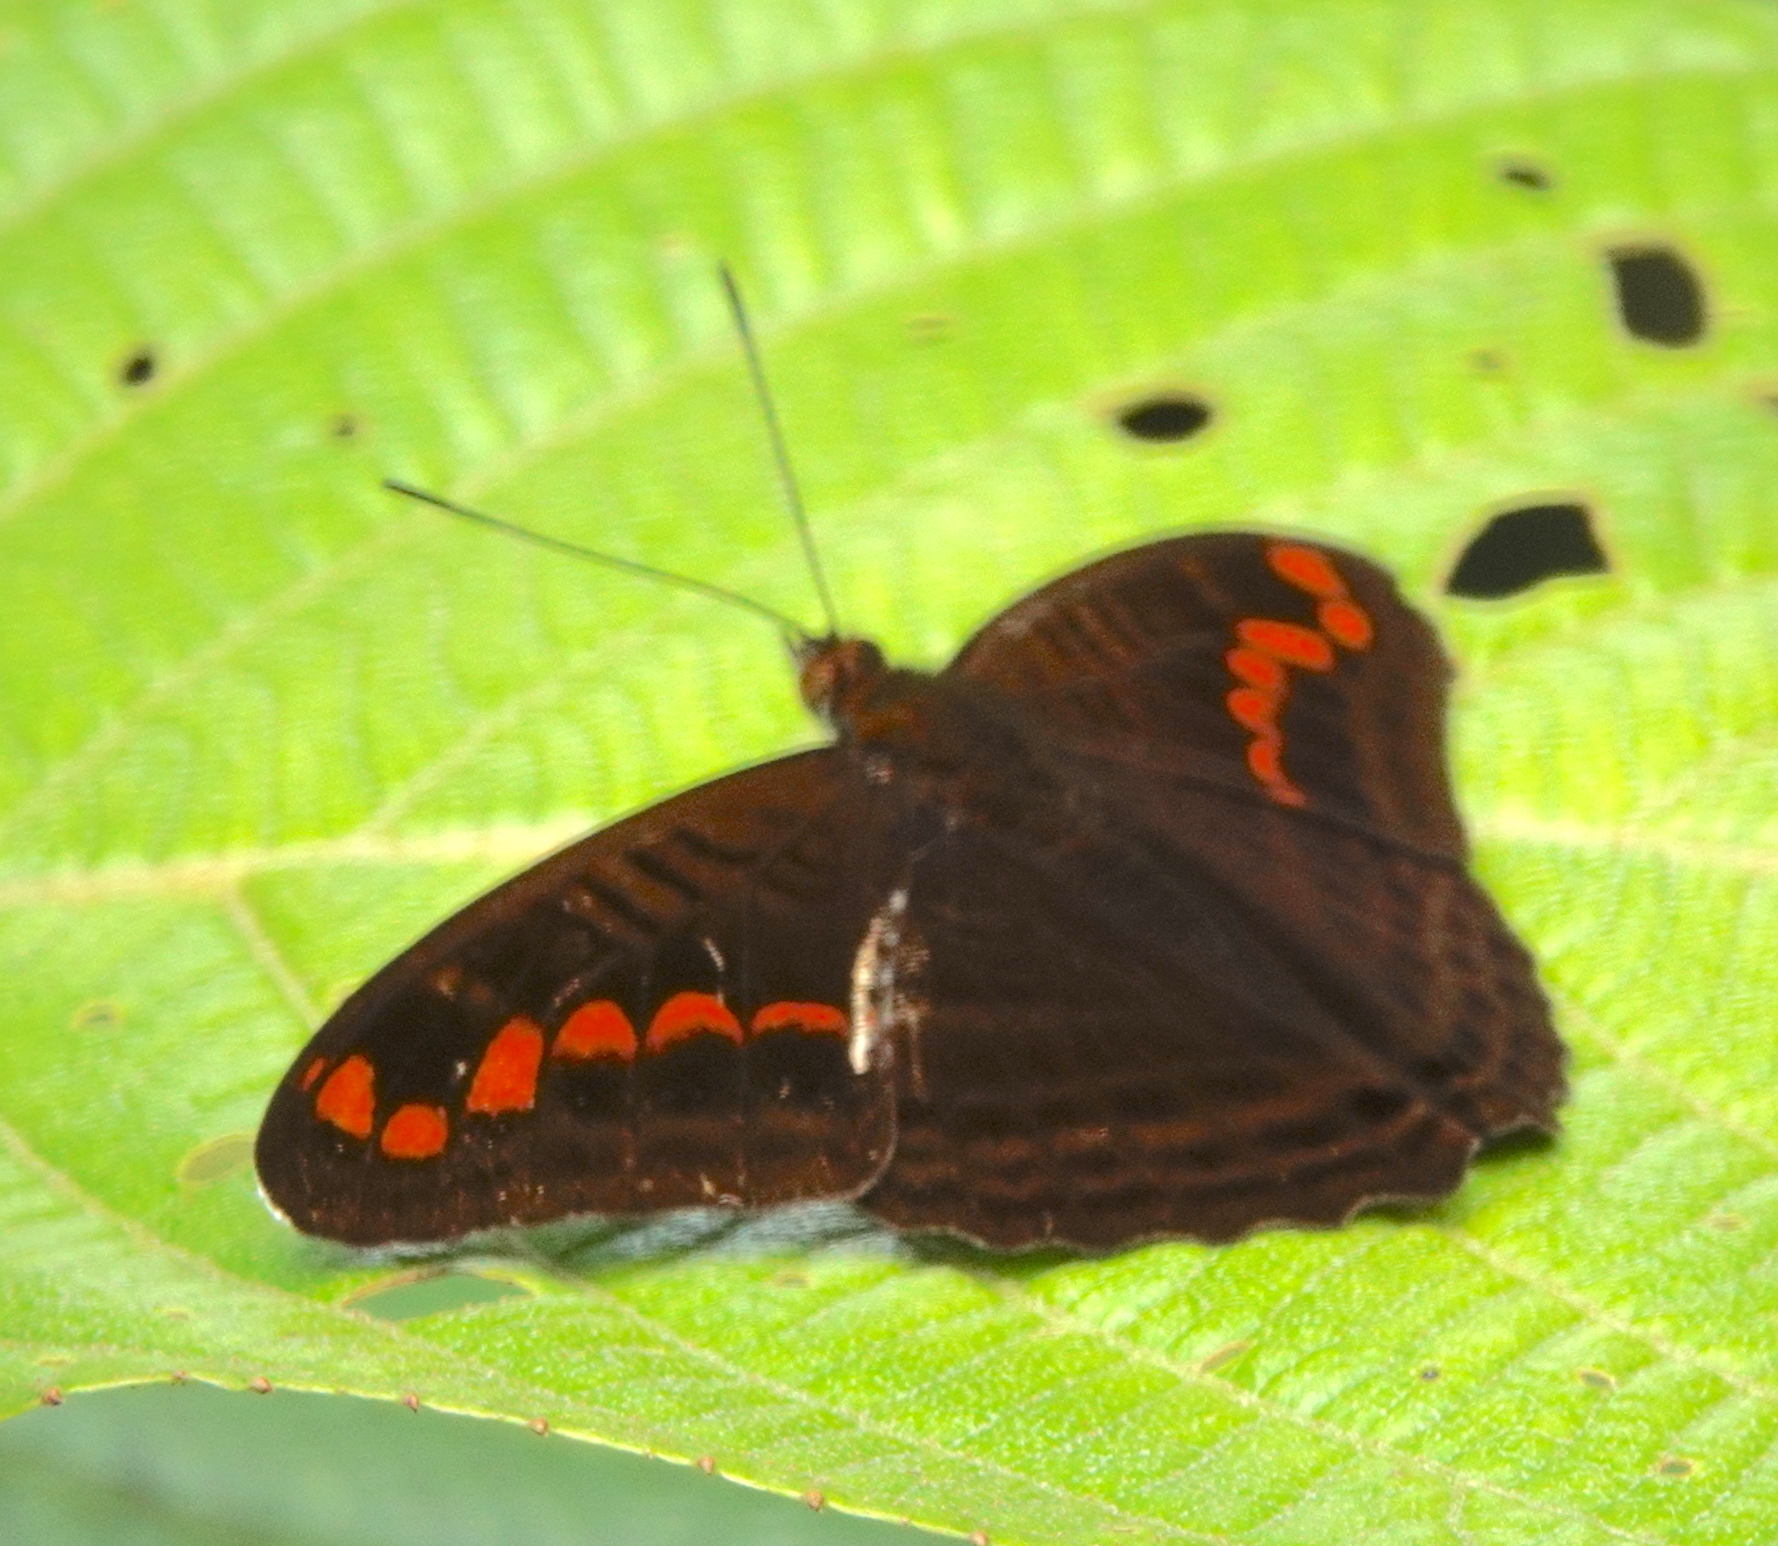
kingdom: Animalia
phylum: Arthropoda
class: Insecta
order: Lepidoptera
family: Nymphalidae
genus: Limenitis
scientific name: Limenitis levona
